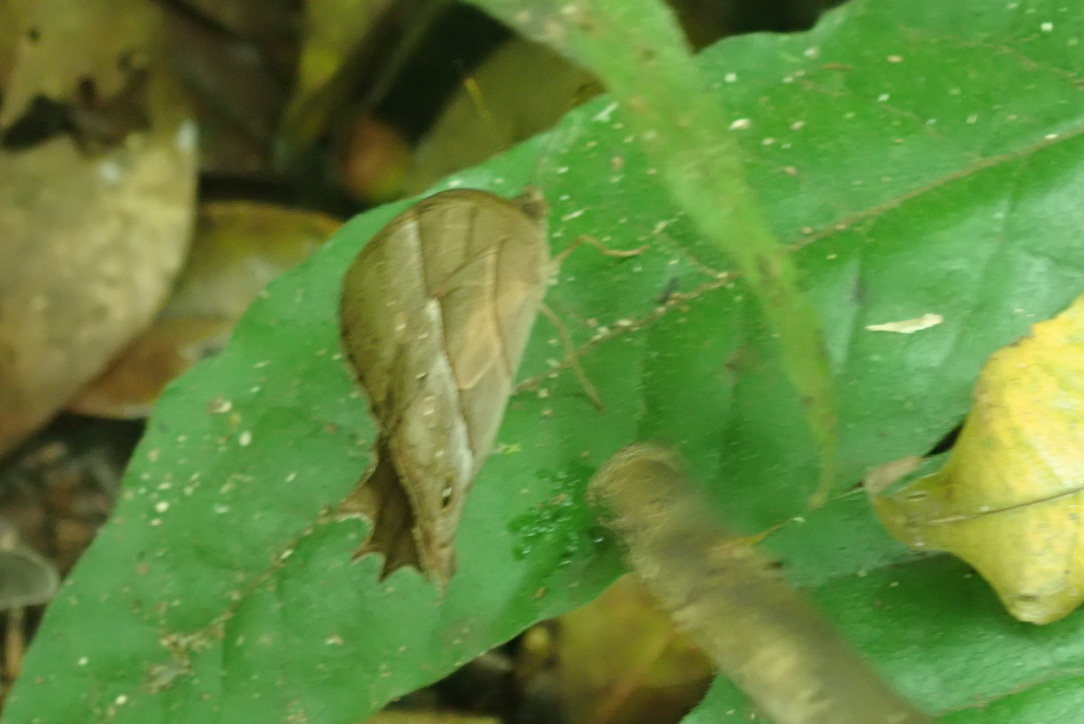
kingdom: Animalia
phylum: Arthropoda
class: Insecta
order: Lepidoptera
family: Nymphalidae
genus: Taygetis
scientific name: Taygetis salvini
